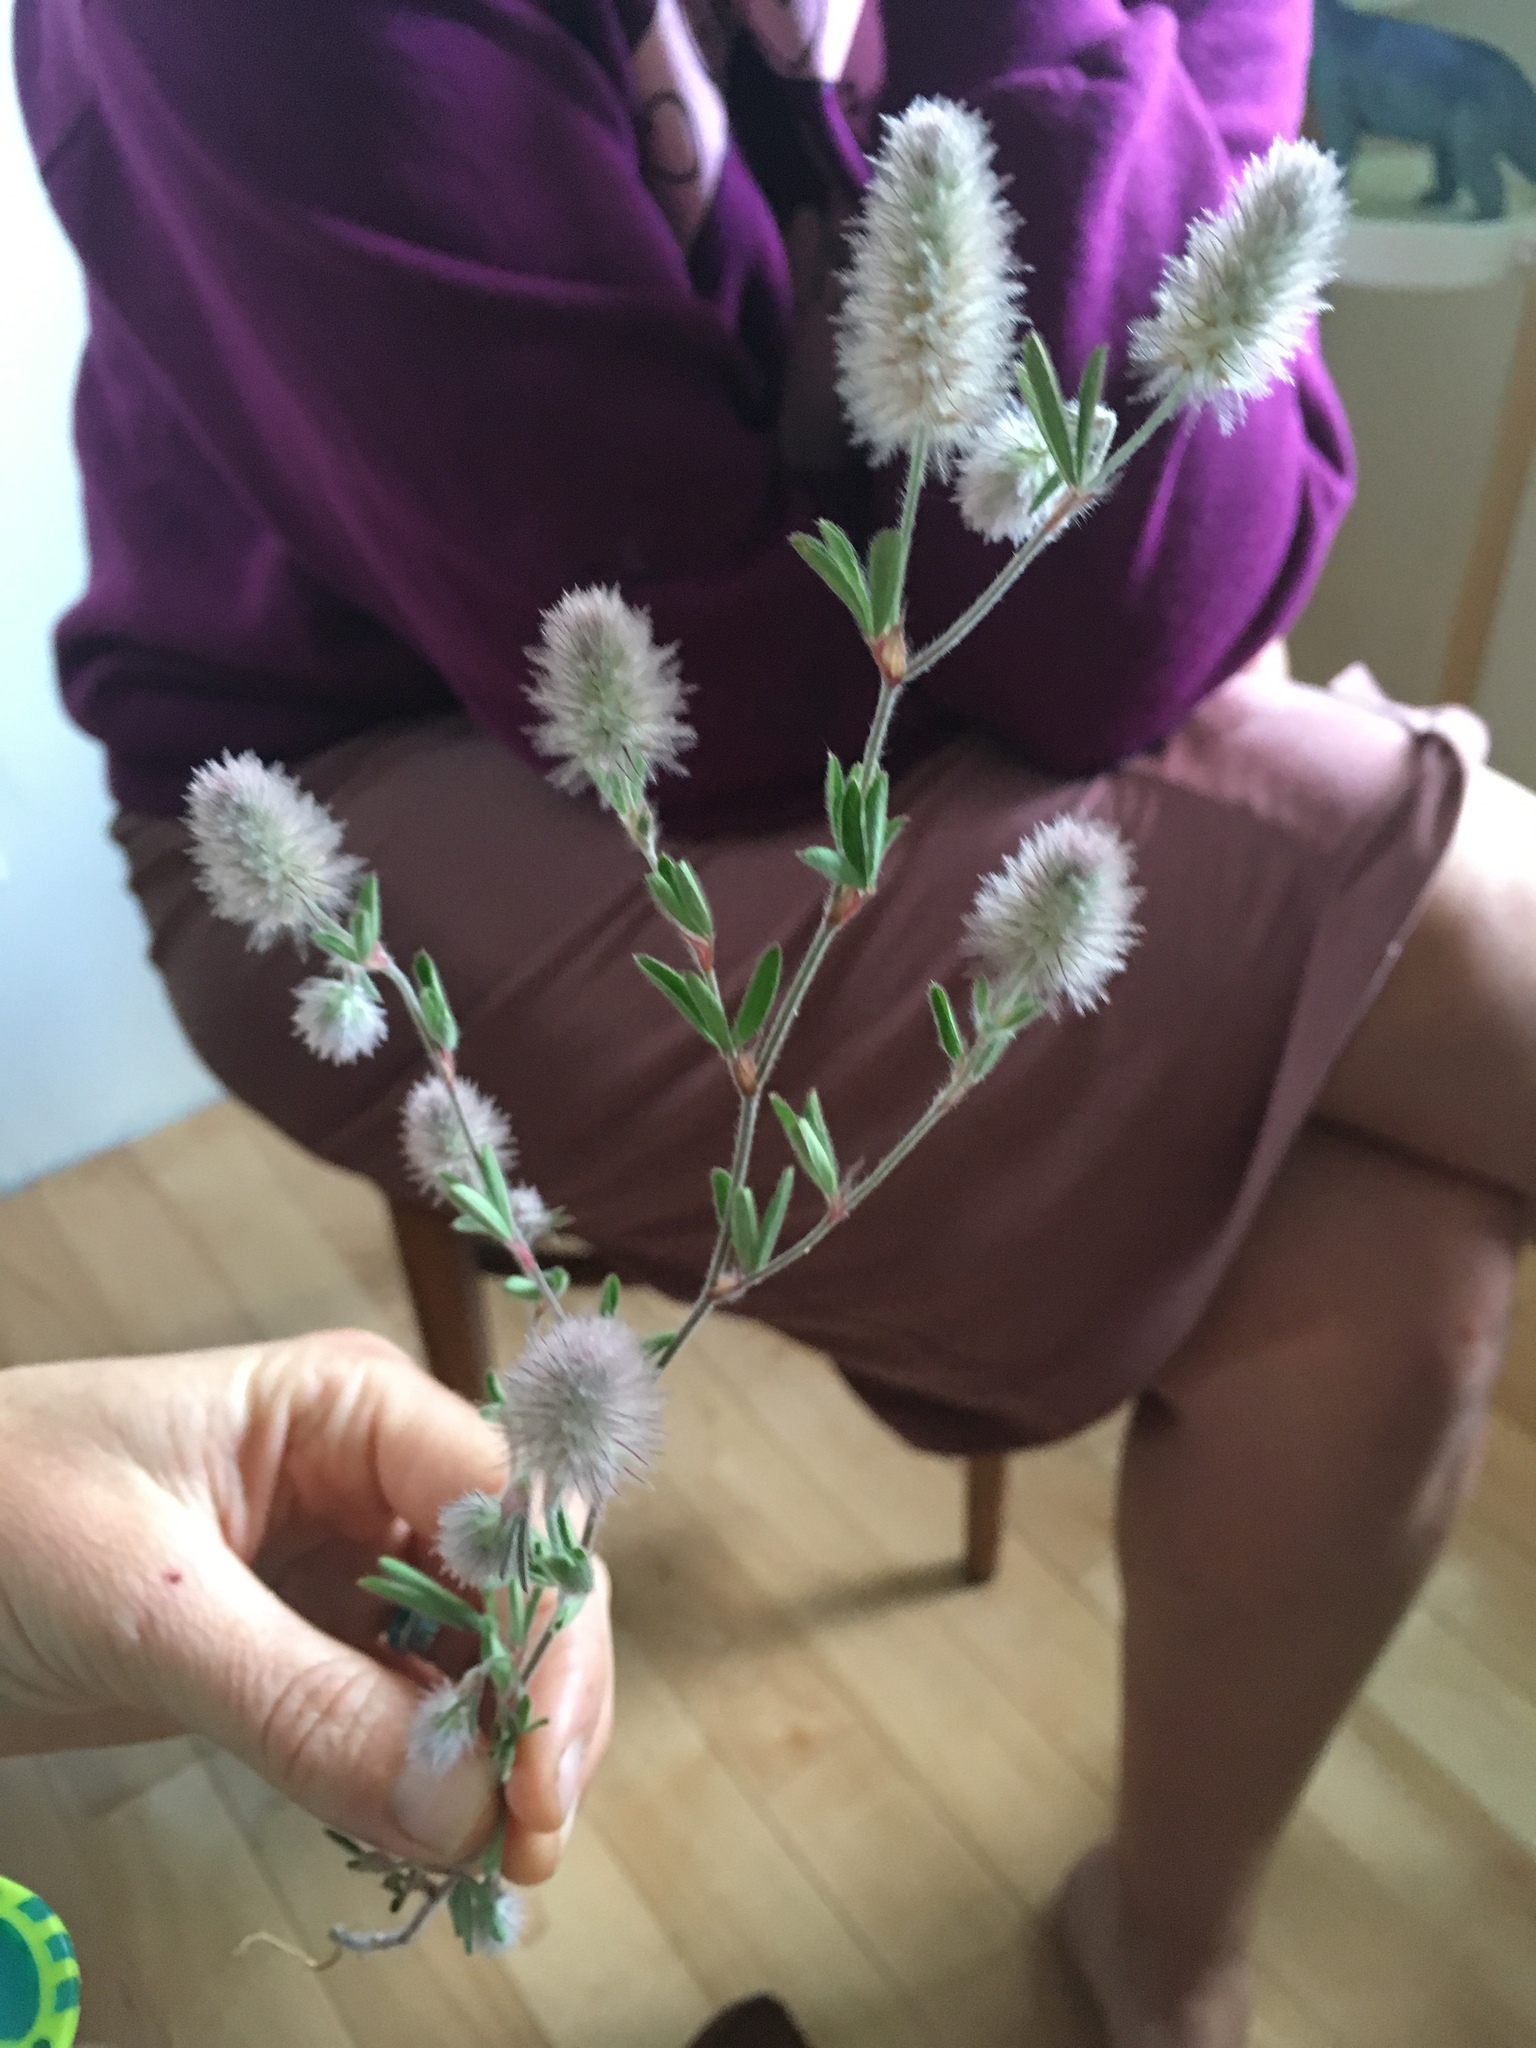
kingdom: Plantae
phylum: Tracheophyta
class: Magnoliopsida
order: Fabales
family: Fabaceae
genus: Trifolium
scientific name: Trifolium arvense
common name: Hare's-foot clover
